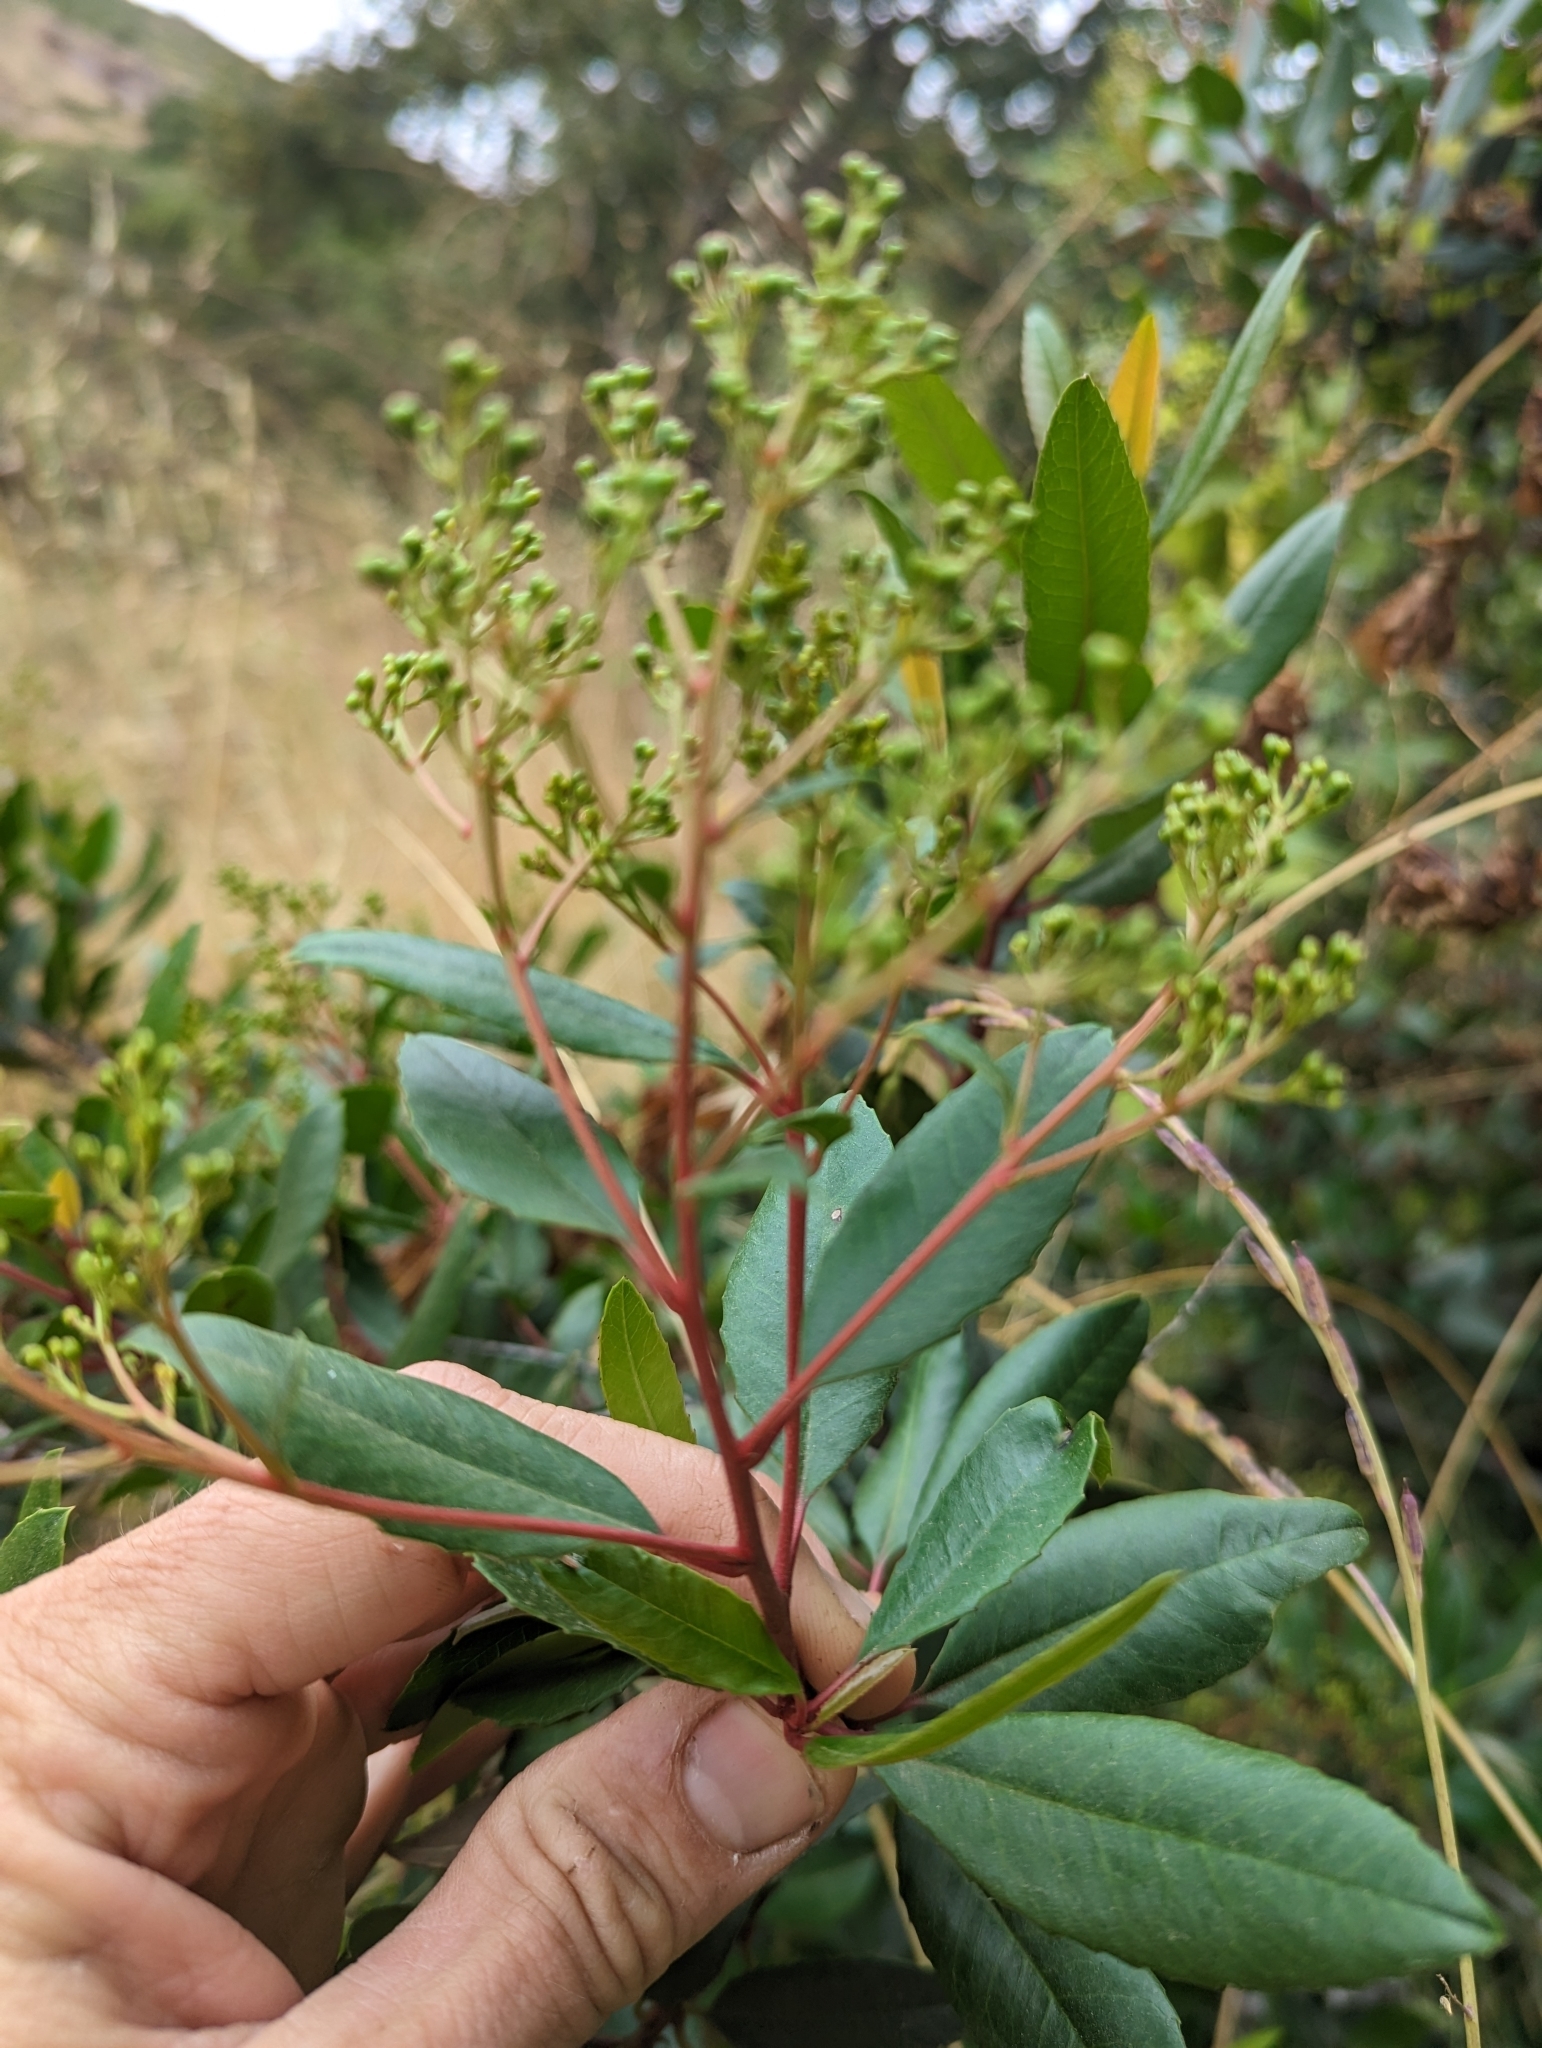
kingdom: Plantae
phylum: Tracheophyta
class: Magnoliopsida
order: Rosales
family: Rosaceae
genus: Heteromeles
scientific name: Heteromeles arbutifolia
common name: California-holly
